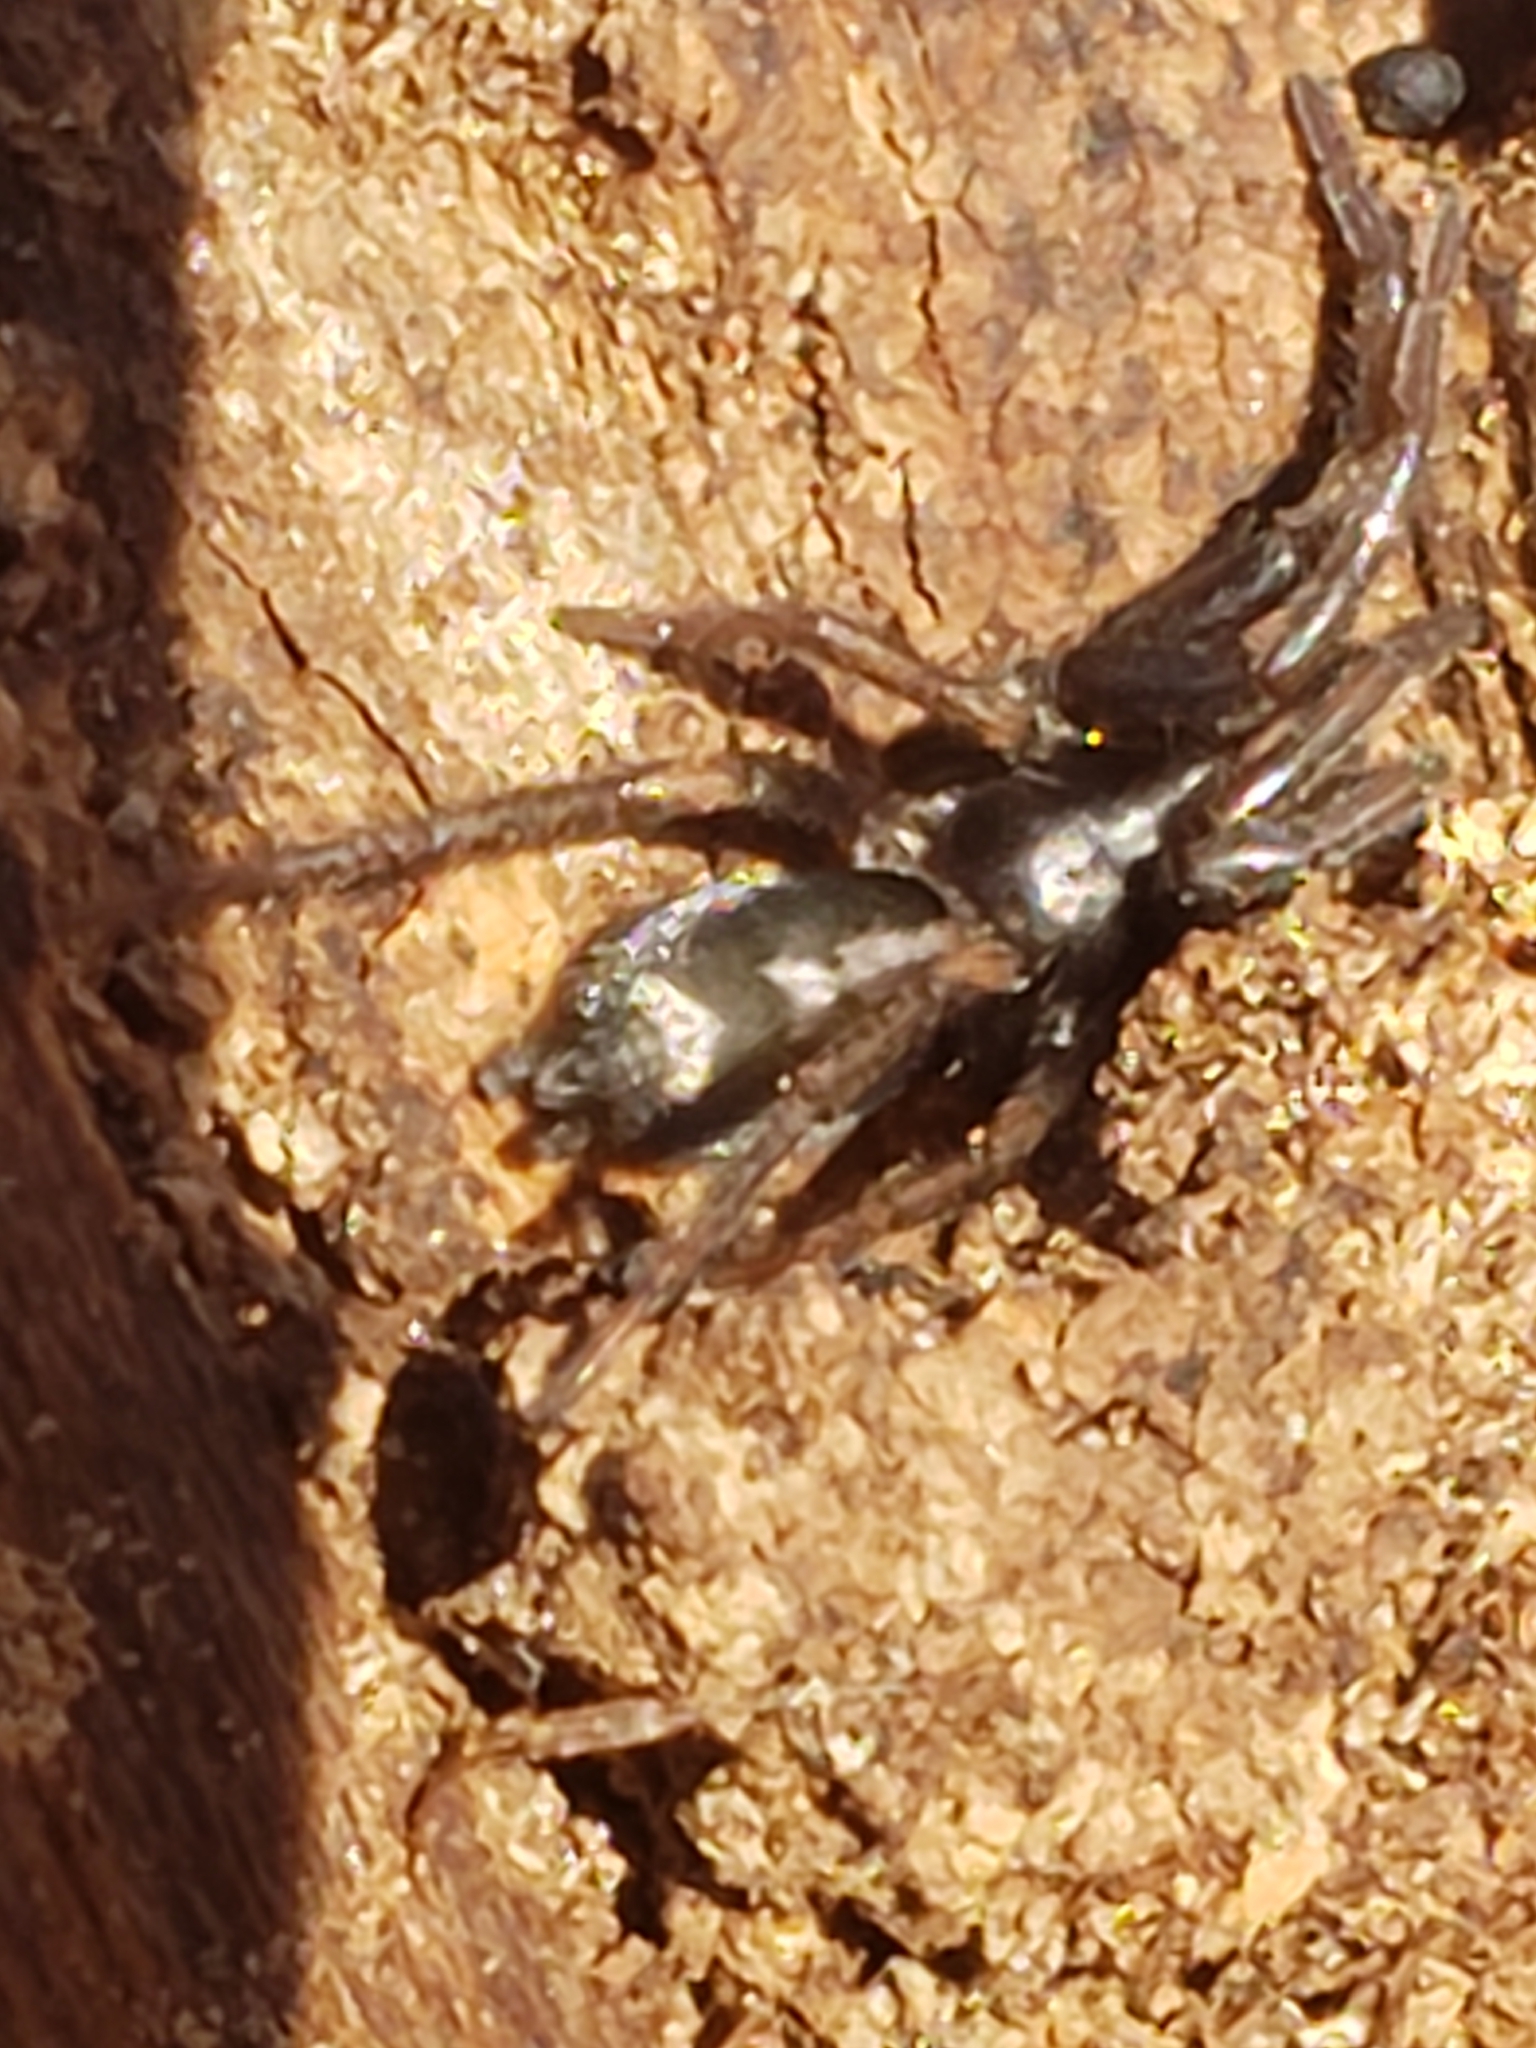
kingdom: Animalia
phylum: Arthropoda
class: Arachnida
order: Araneae
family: Gnaphosidae
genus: Herpyllus
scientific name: Herpyllus ecclesiasticus
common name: Eastern parson spider
